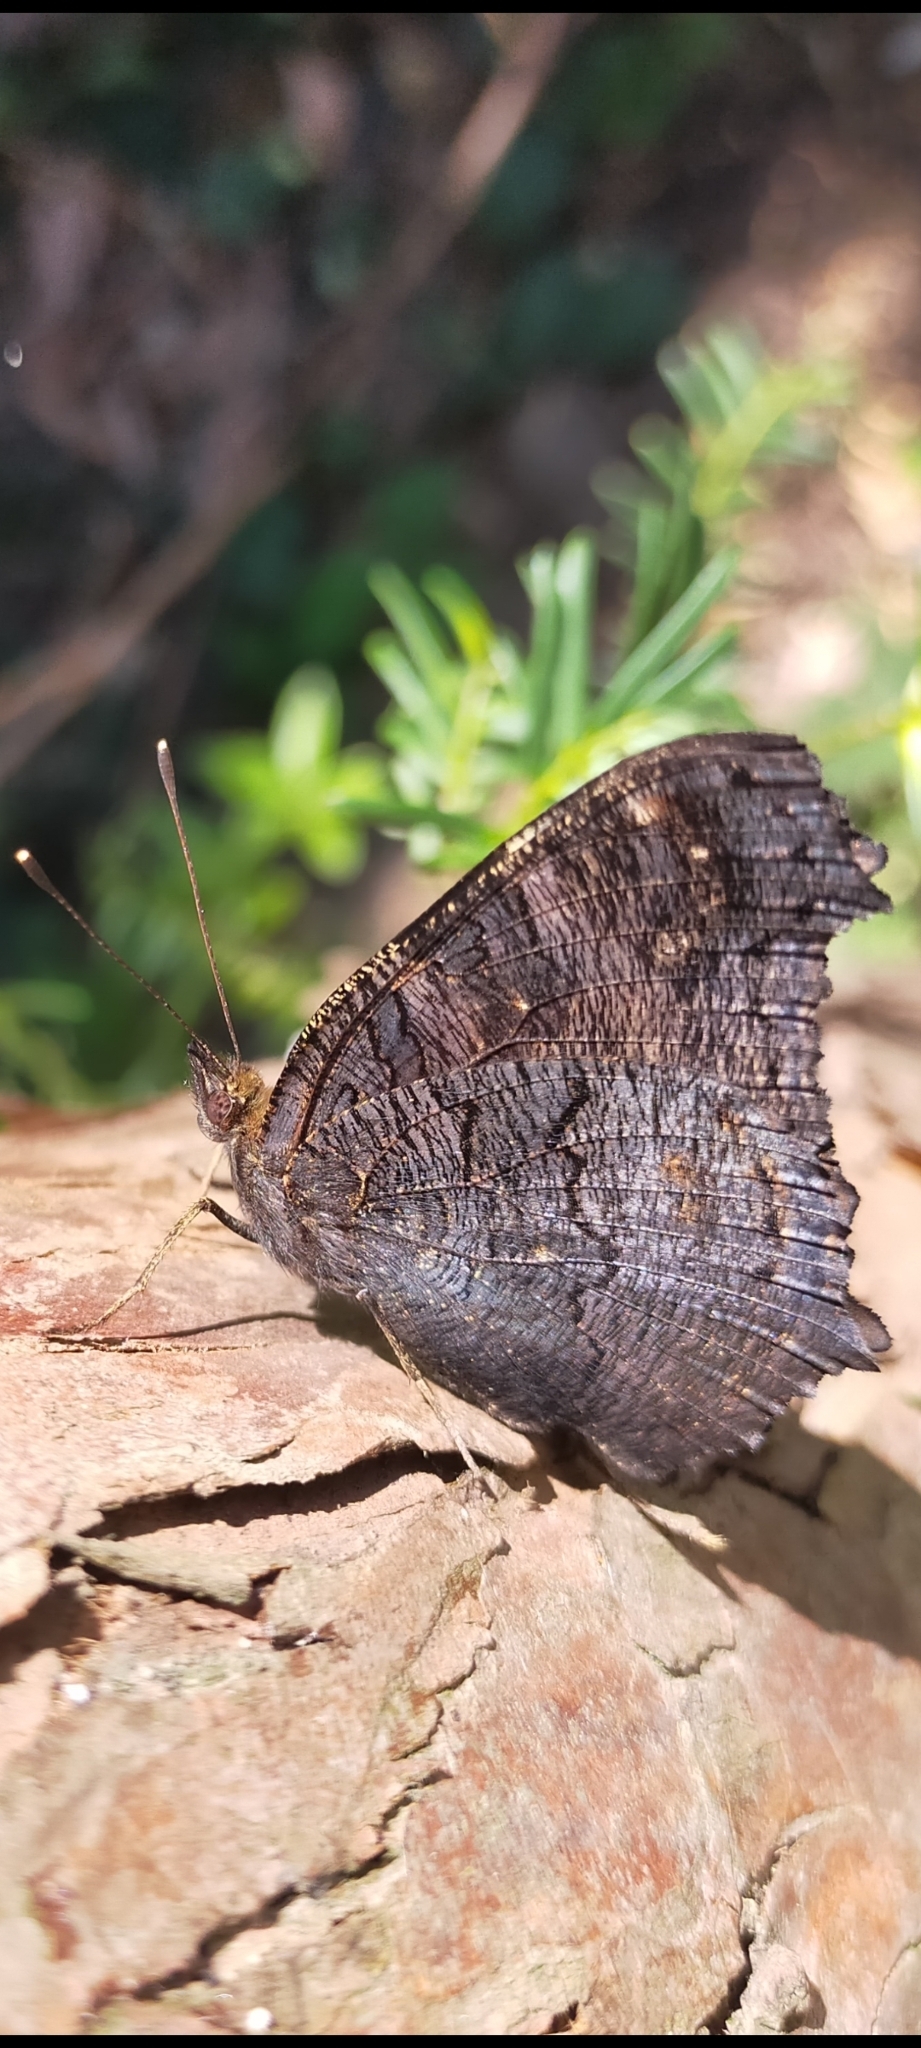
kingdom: Animalia
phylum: Arthropoda
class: Insecta
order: Lepidoptera
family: Nymphalidae
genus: Aglais
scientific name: Aglais io
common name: Peacock
